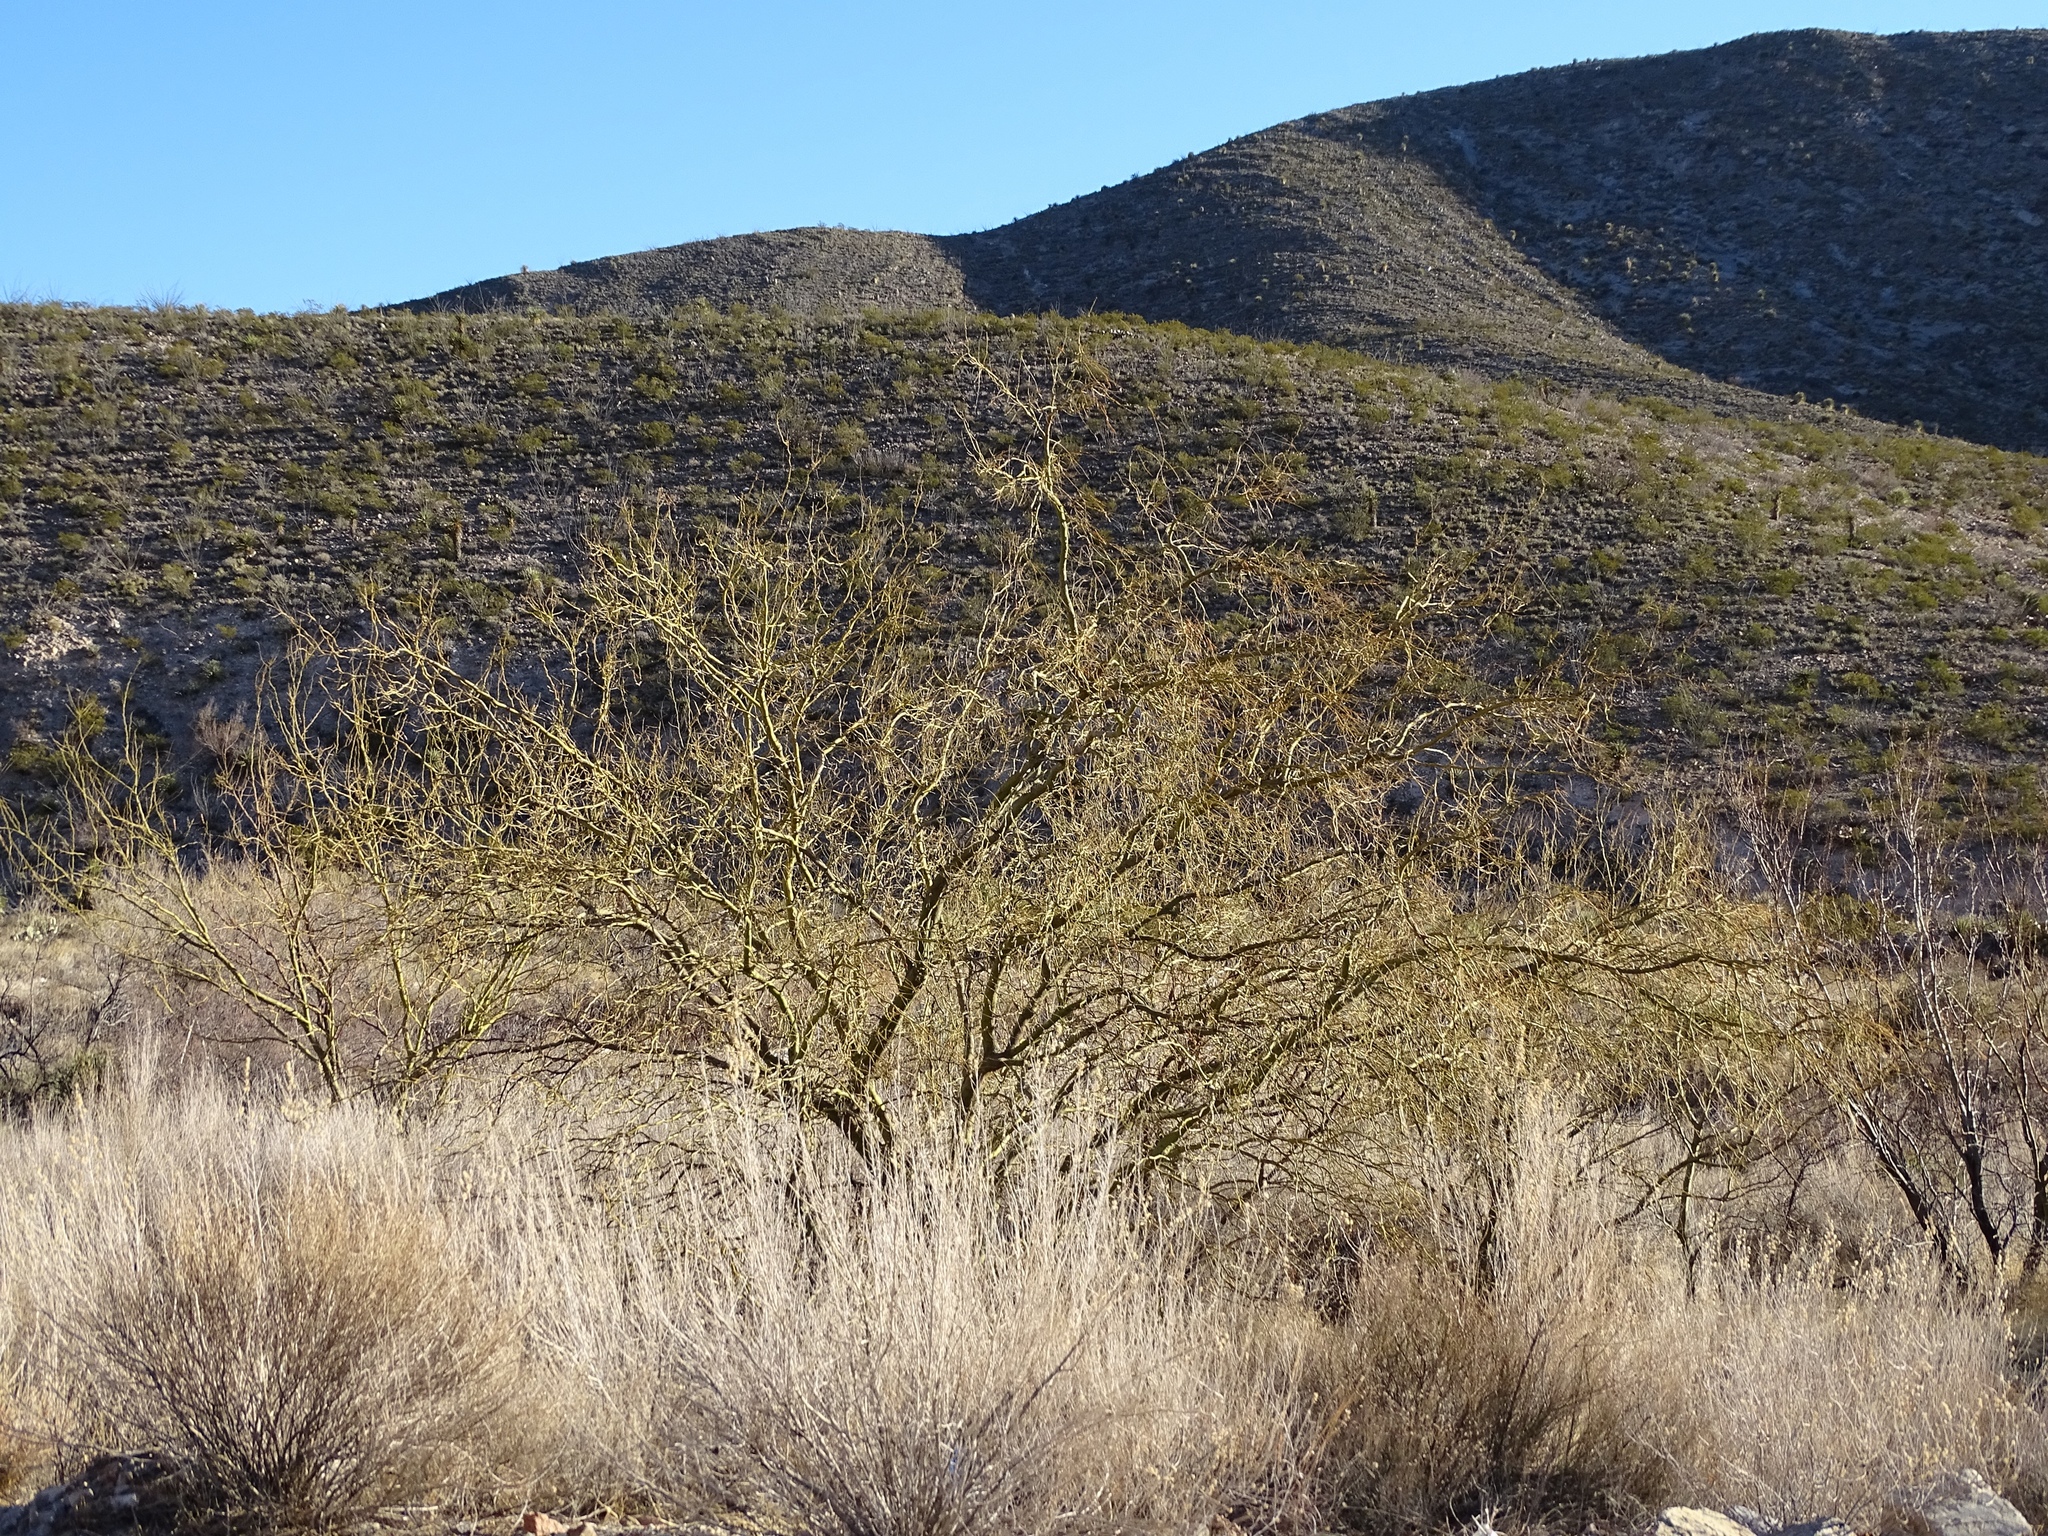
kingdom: Plantae
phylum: Tracheophyta
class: Magnoliopsida
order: Fabales
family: Fabaceae
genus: Parkinsonia
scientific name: Parkinsonia aculeata
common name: Jerusalem thorn
